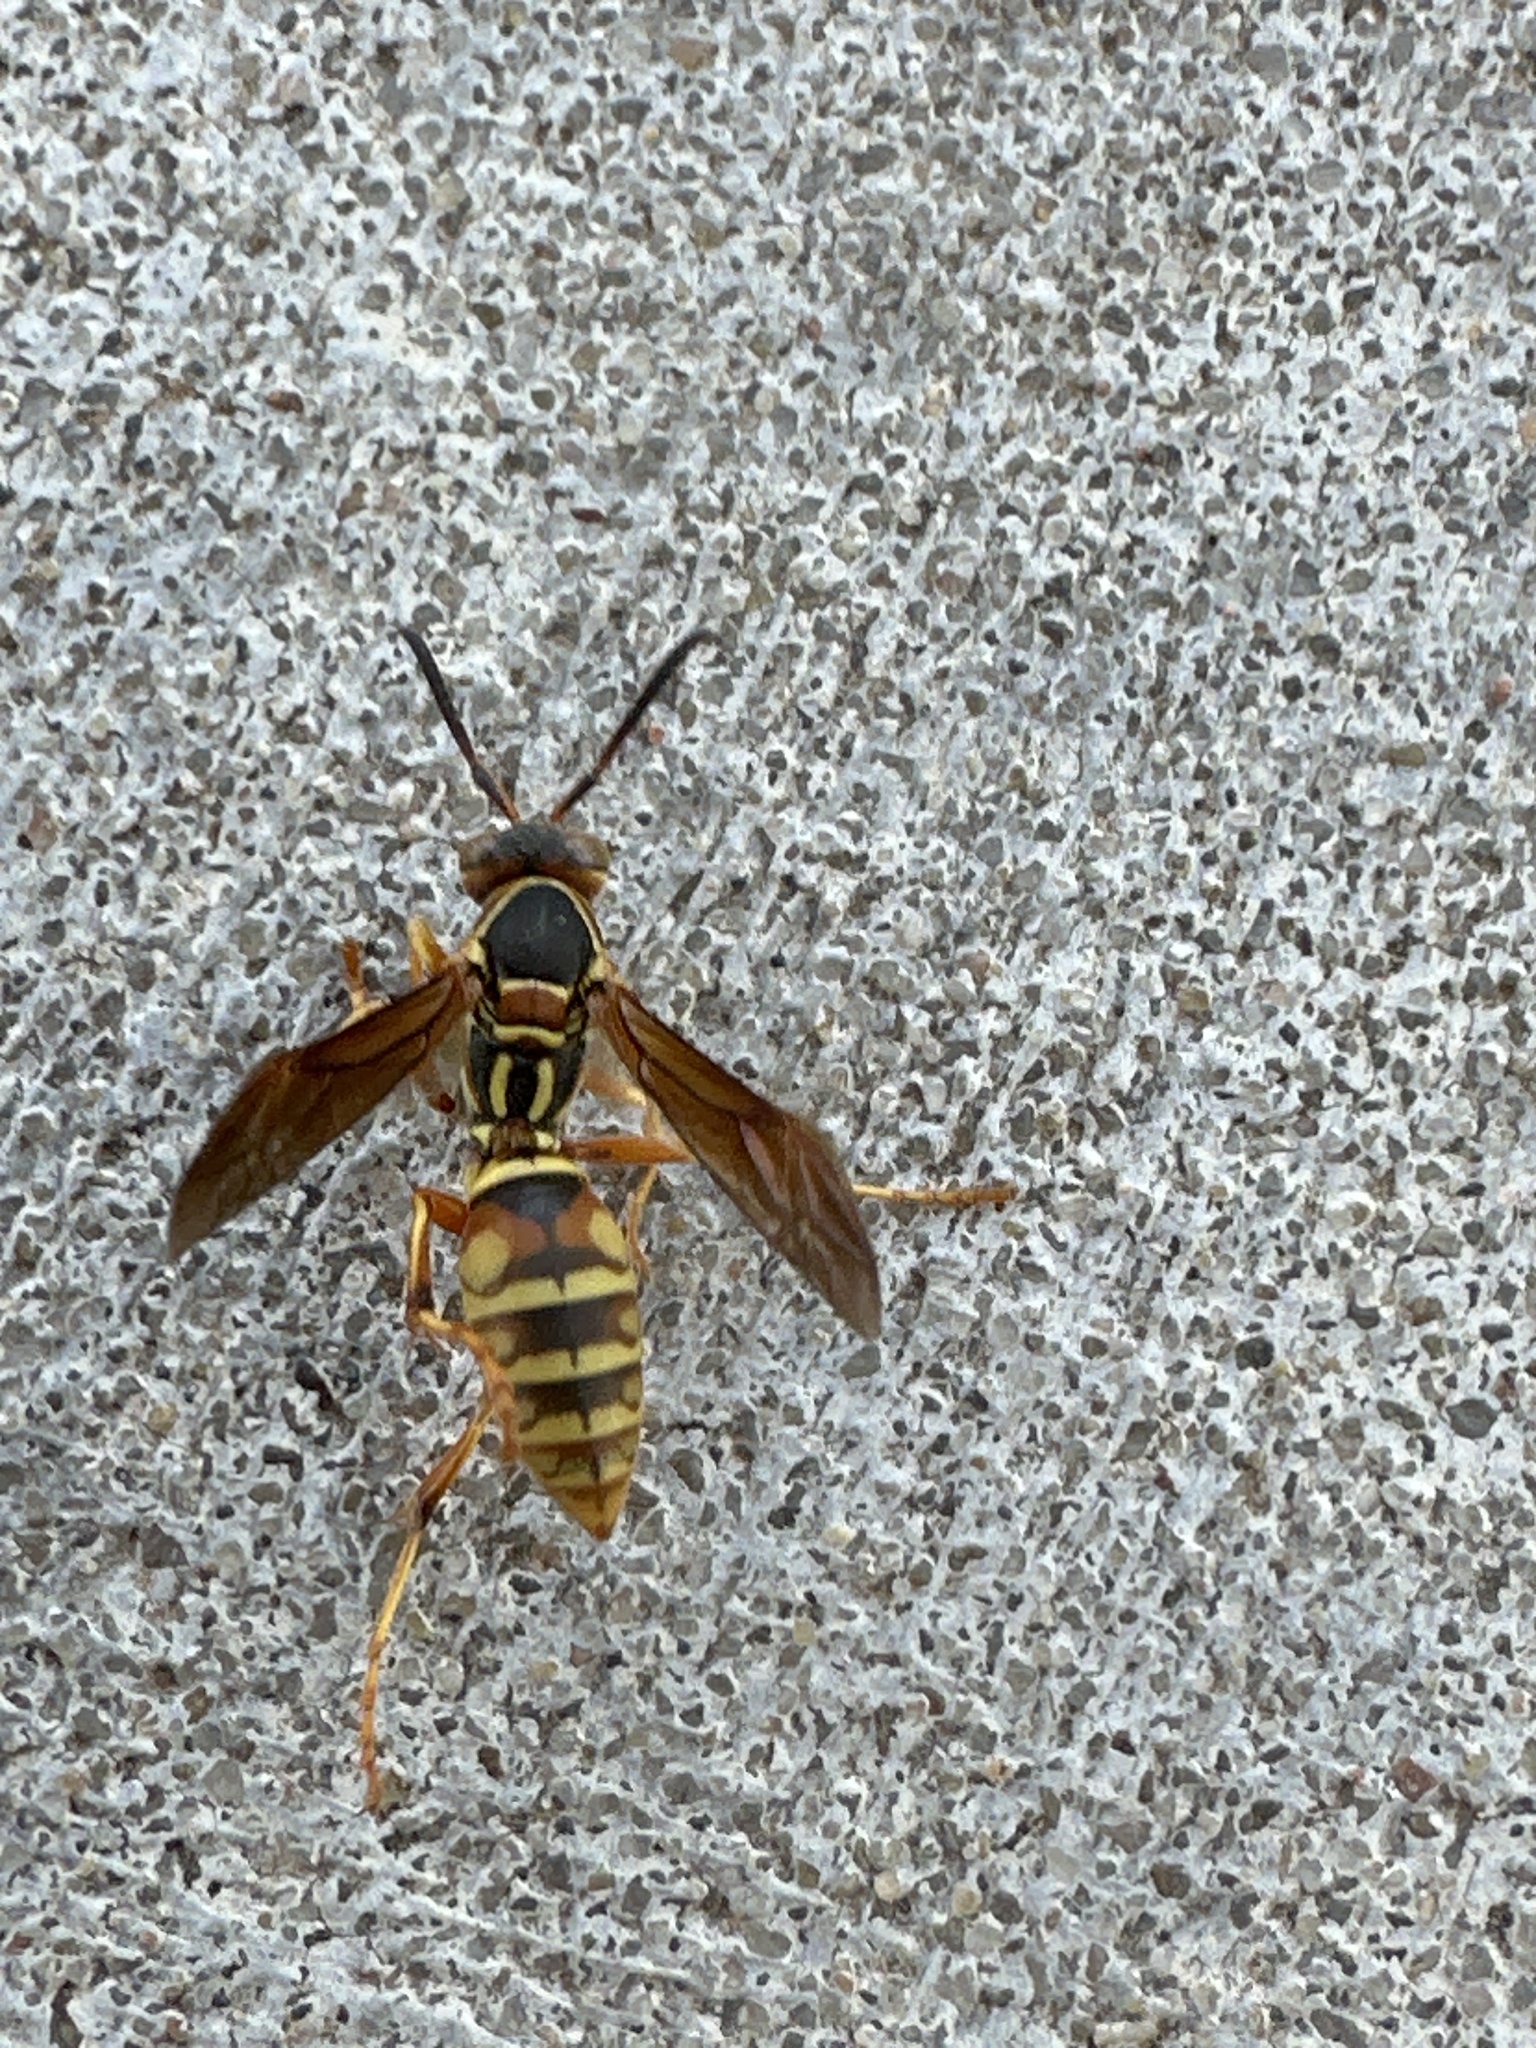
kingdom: Animalia
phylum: Arthropoda
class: Insecta
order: Hymenoptera
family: Eumenidae
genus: Polistes
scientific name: Polistes fuscatus
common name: Dark paper wasp
